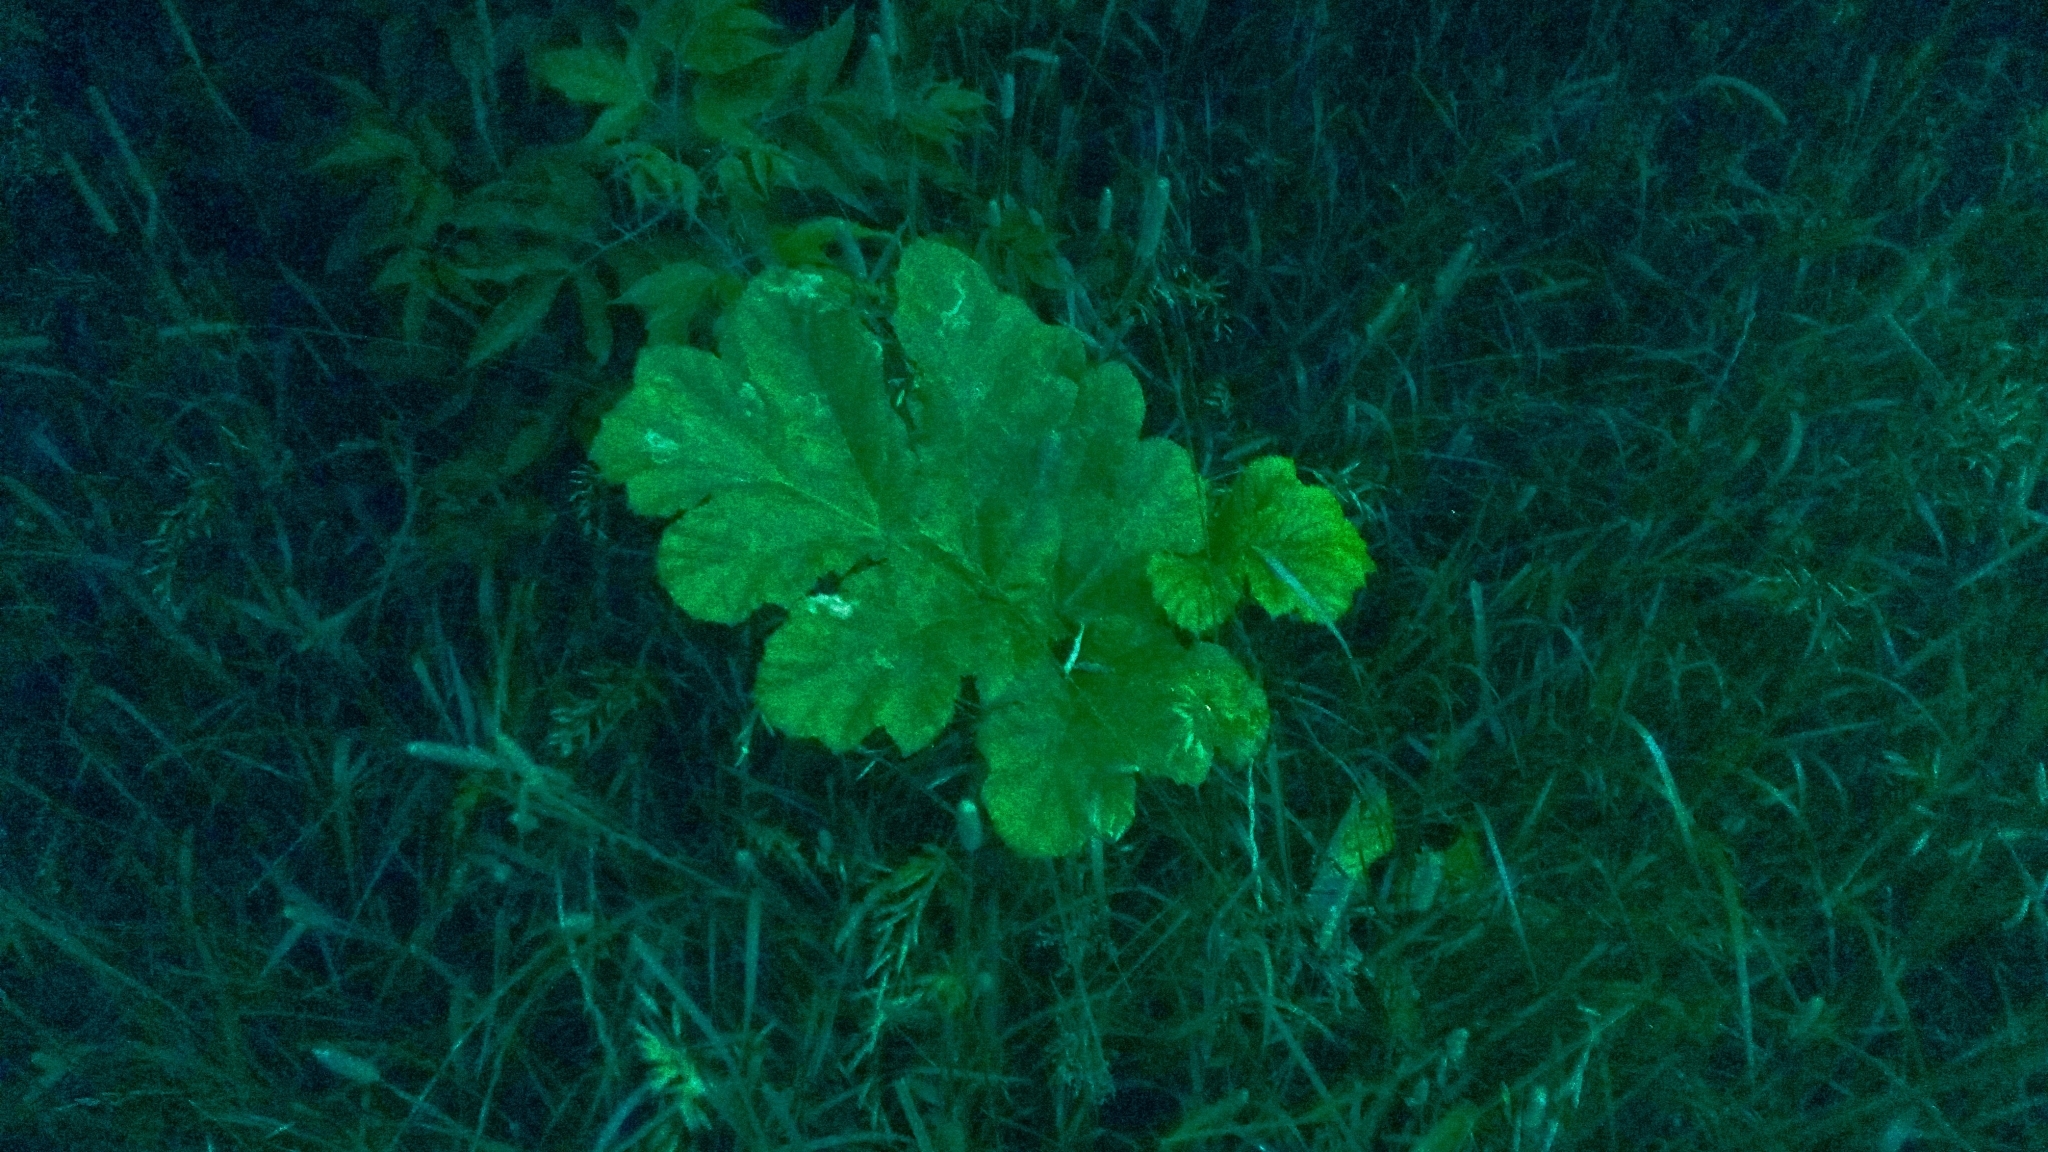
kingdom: Plantae
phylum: Tracheophyta
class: Magnoliopsida
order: Apiales
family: Apiaceae
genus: Heracleum
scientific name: Heracleum sosnowskyi
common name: Sosnowsky's hogweed
